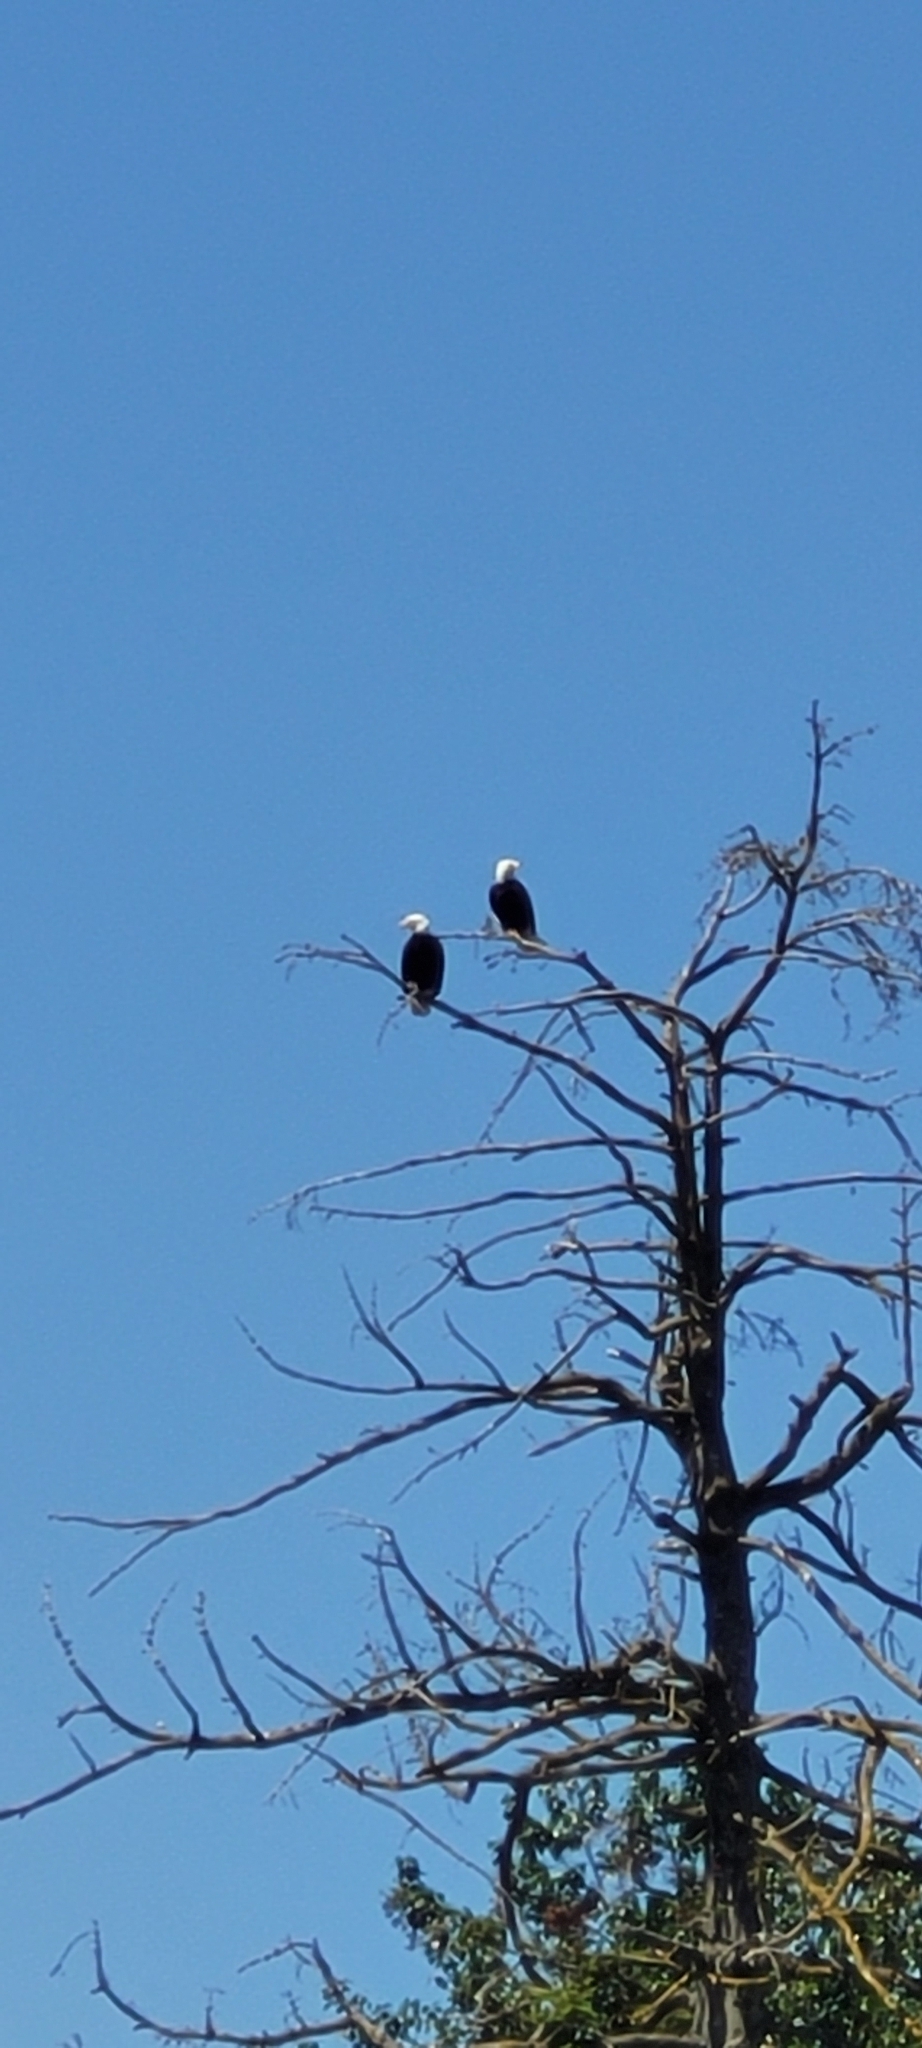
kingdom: Animalia
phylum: Chordata
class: Aves
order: Accipitriformes
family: Accipitridae
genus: Haliaeetus
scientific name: Haliaeetus leucocephalus
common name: Bald eagle
